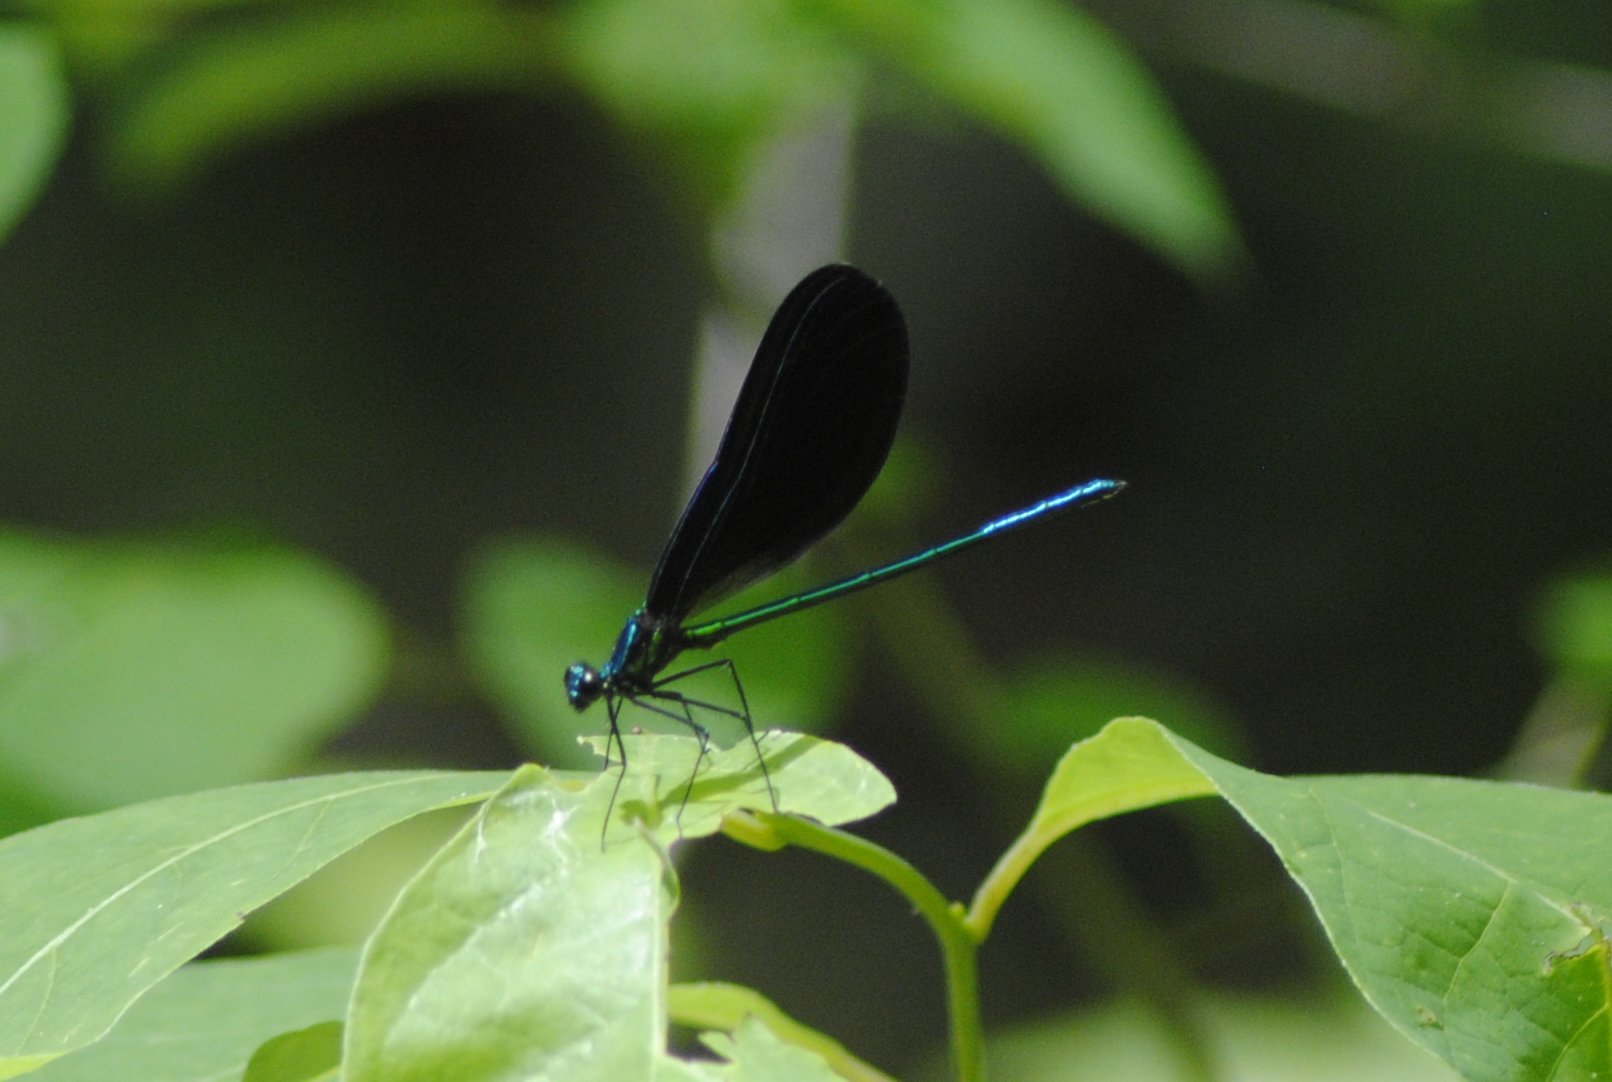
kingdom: Animalia
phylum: Arthropoda
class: Insecta
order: Odonata
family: Calopterygidae
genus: Calopteryx
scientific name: Calopteryx maculata
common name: Ebony jewelwing
